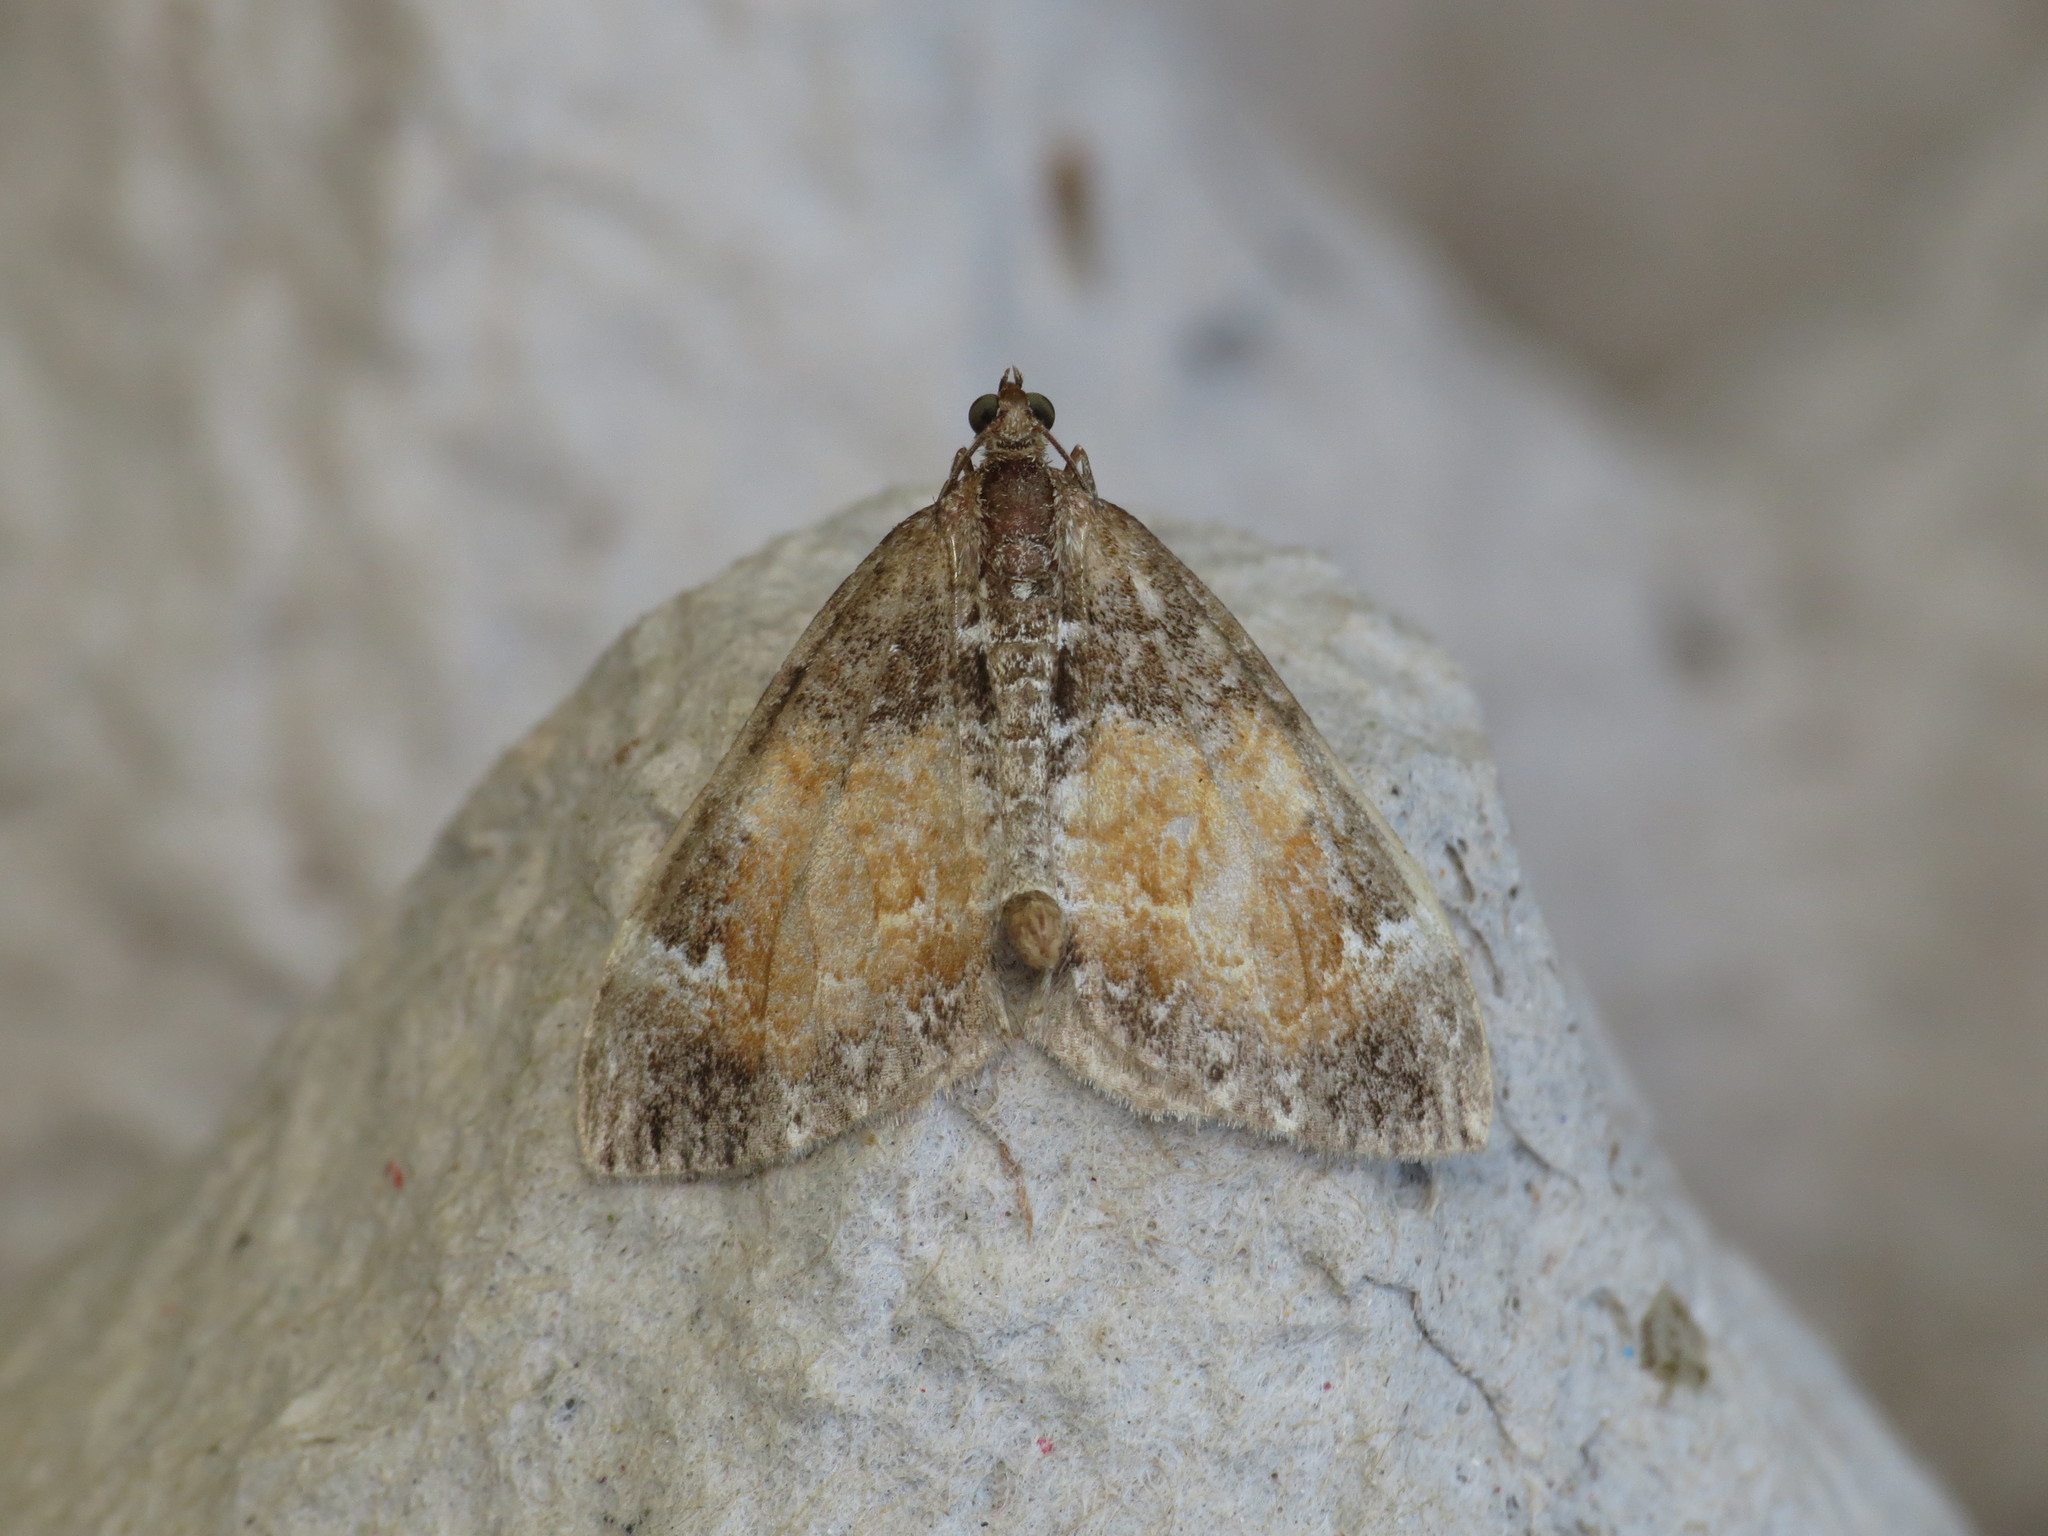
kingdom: Animalia
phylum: Arthropoda
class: Insecta
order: Lepidoptera
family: Geometridae
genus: Dysstroma
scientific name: Dysstroma truncata
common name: Common marbled carpet
